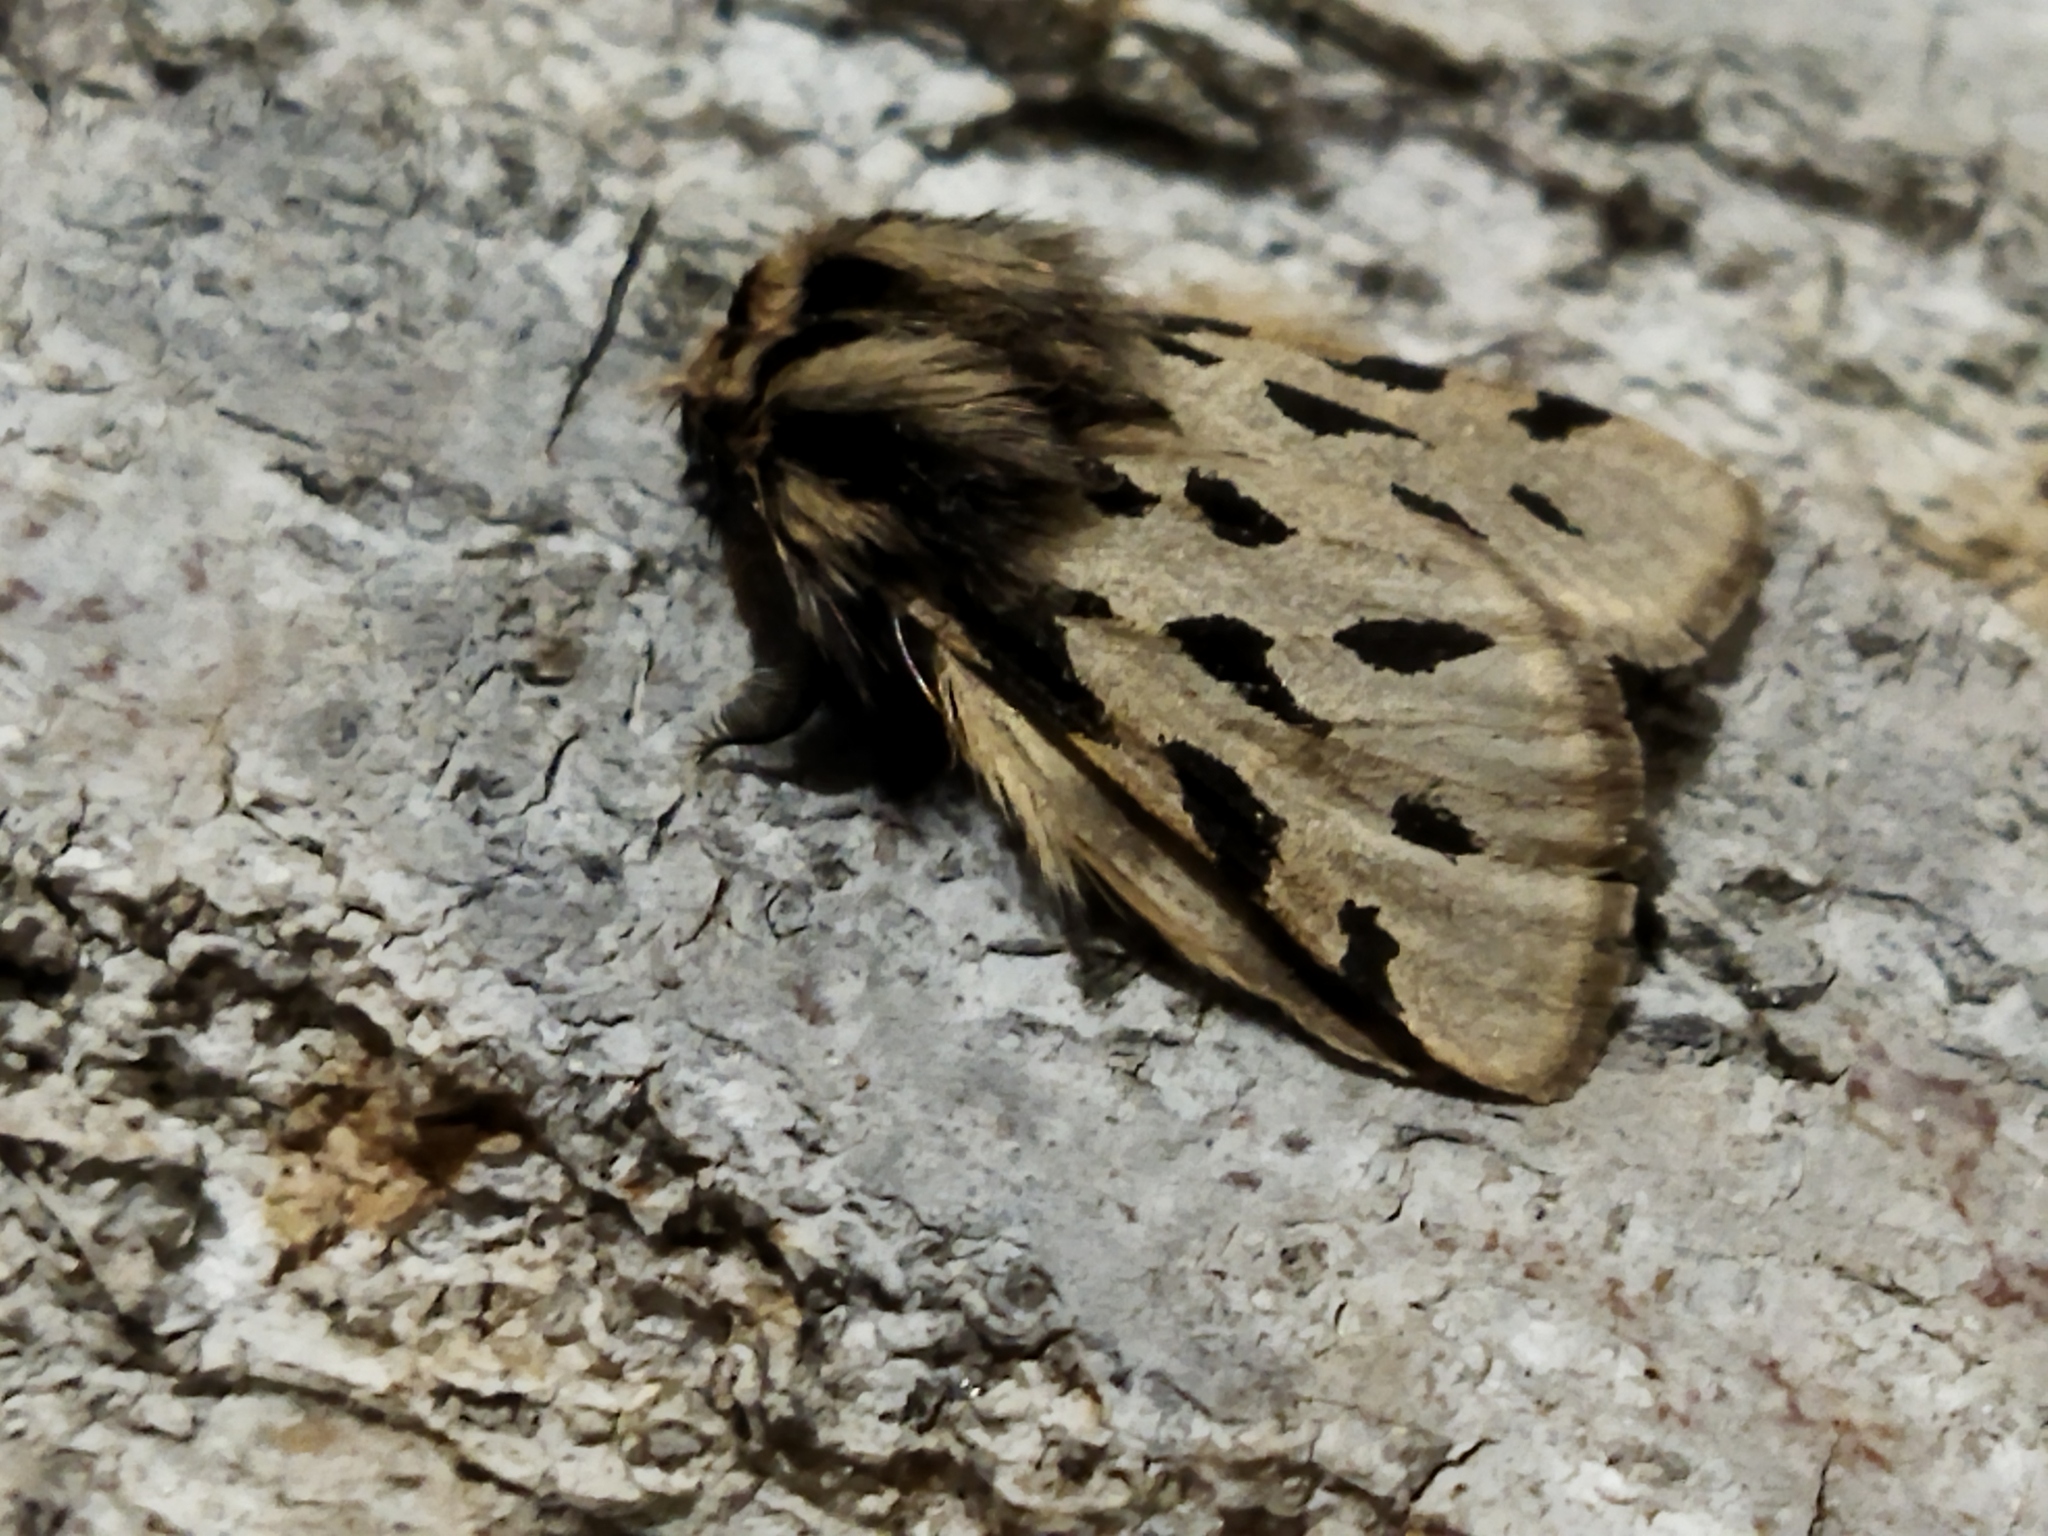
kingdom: Animalia
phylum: Arthropoda
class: Insecta
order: Lepidoptera
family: Erebidae
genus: Ocnogyna
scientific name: Ocnogyna parasita
